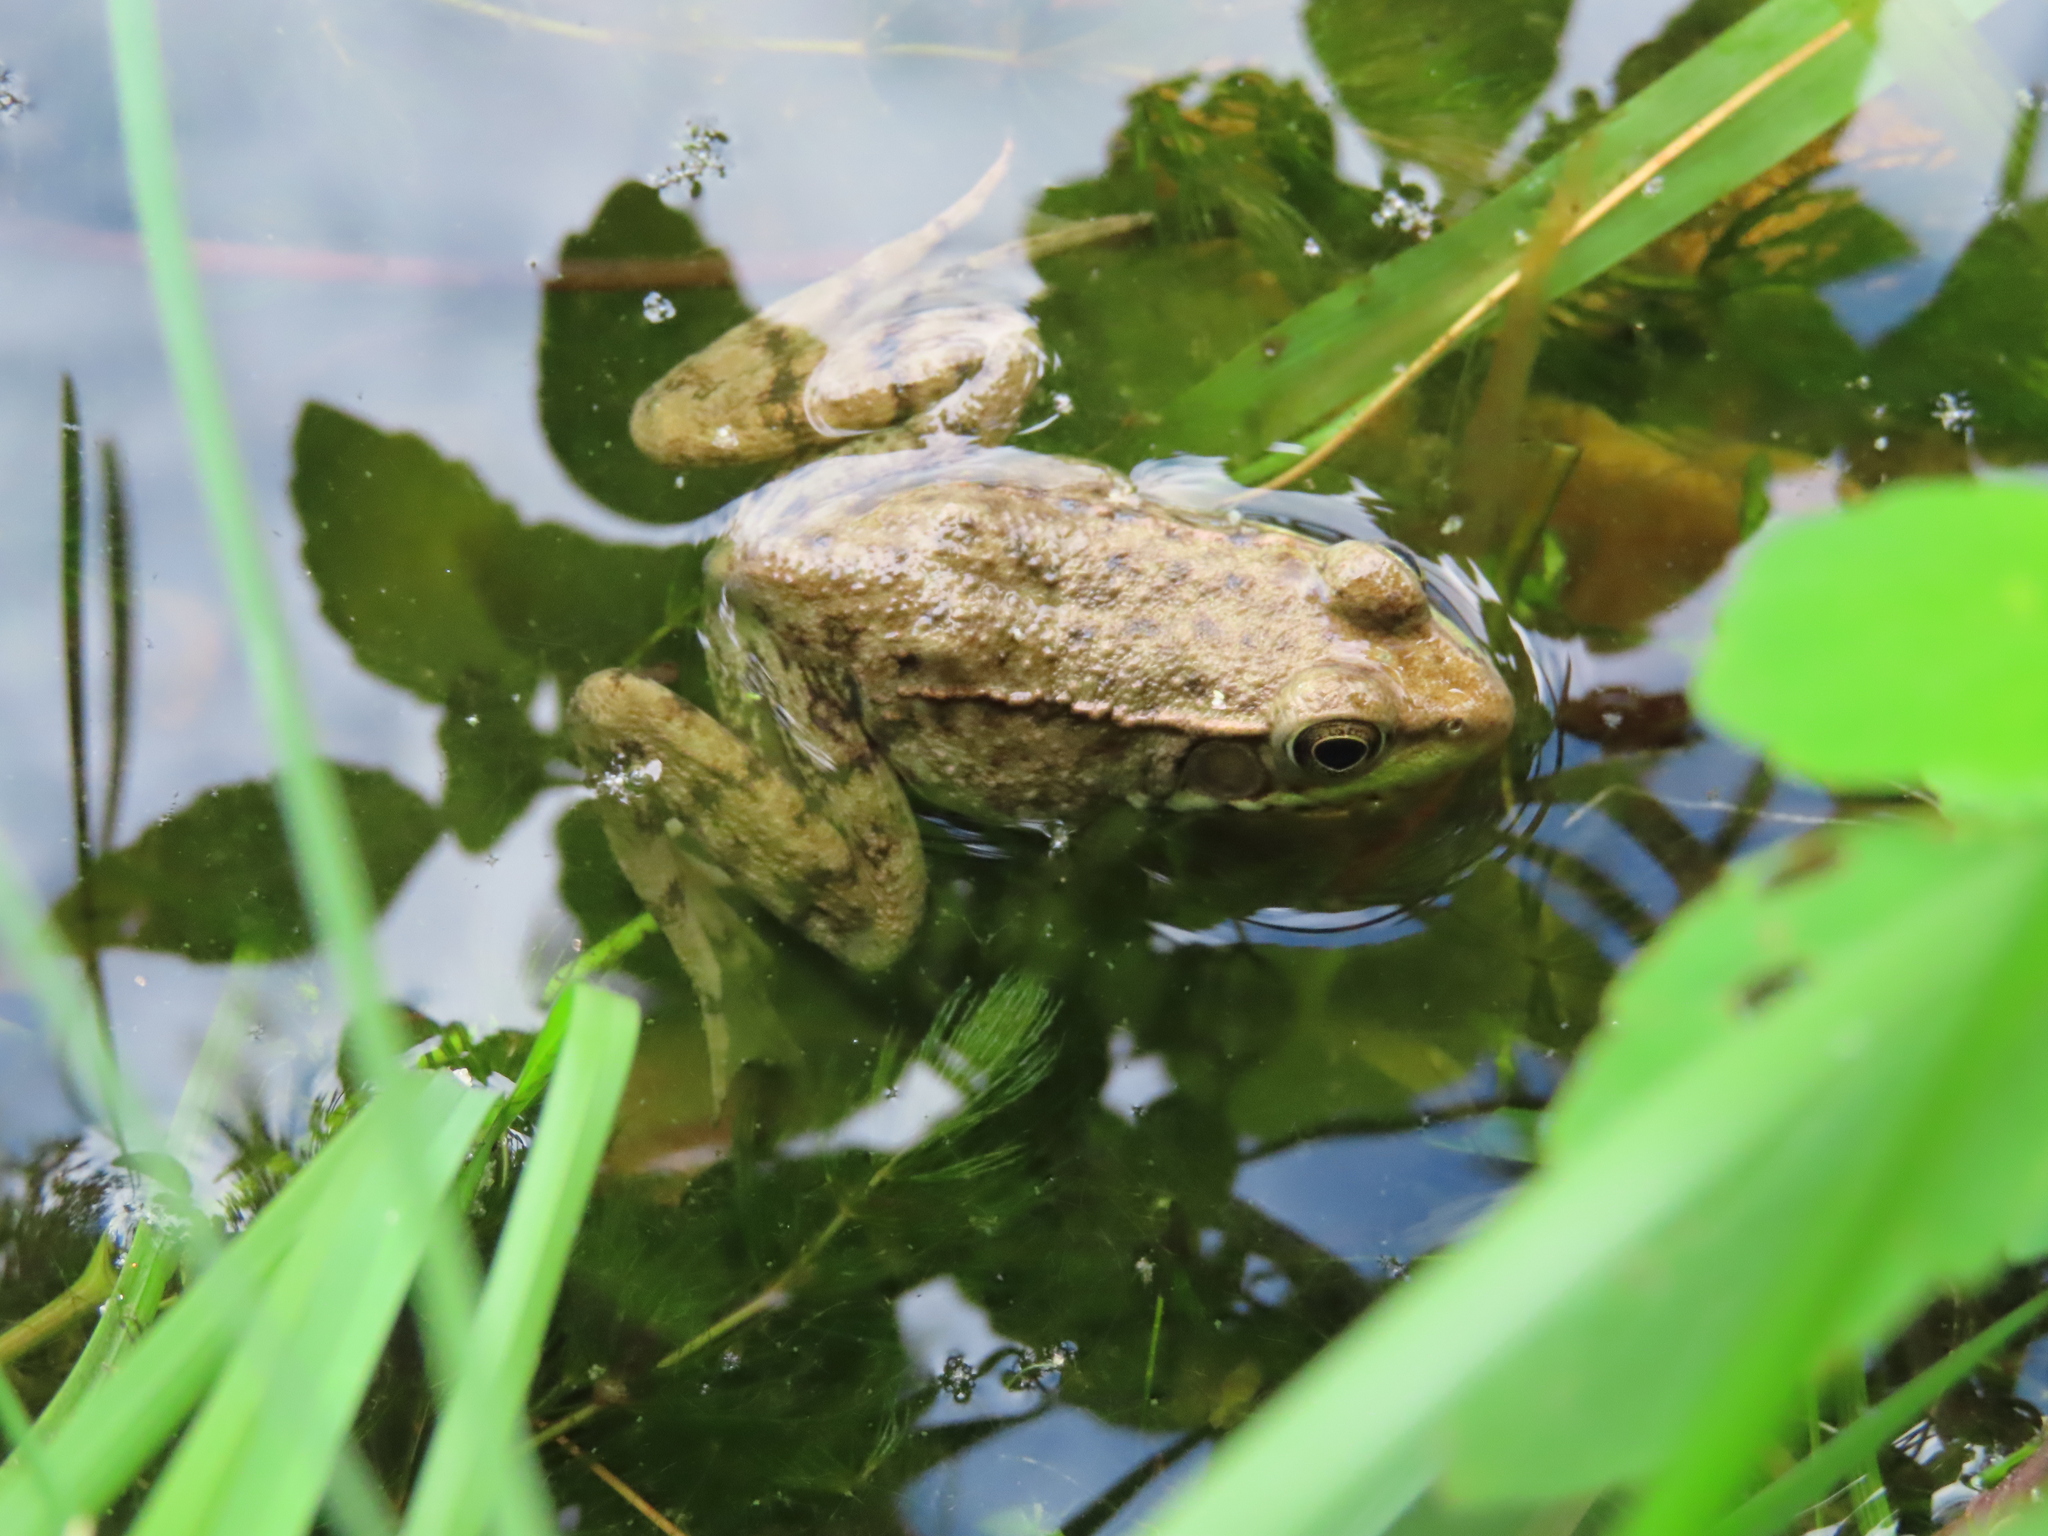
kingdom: Animalia
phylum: Chordata
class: Amphibia
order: Anura
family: Ranidae
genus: Lithobates
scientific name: Lithobates clamitans
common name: Green frog
